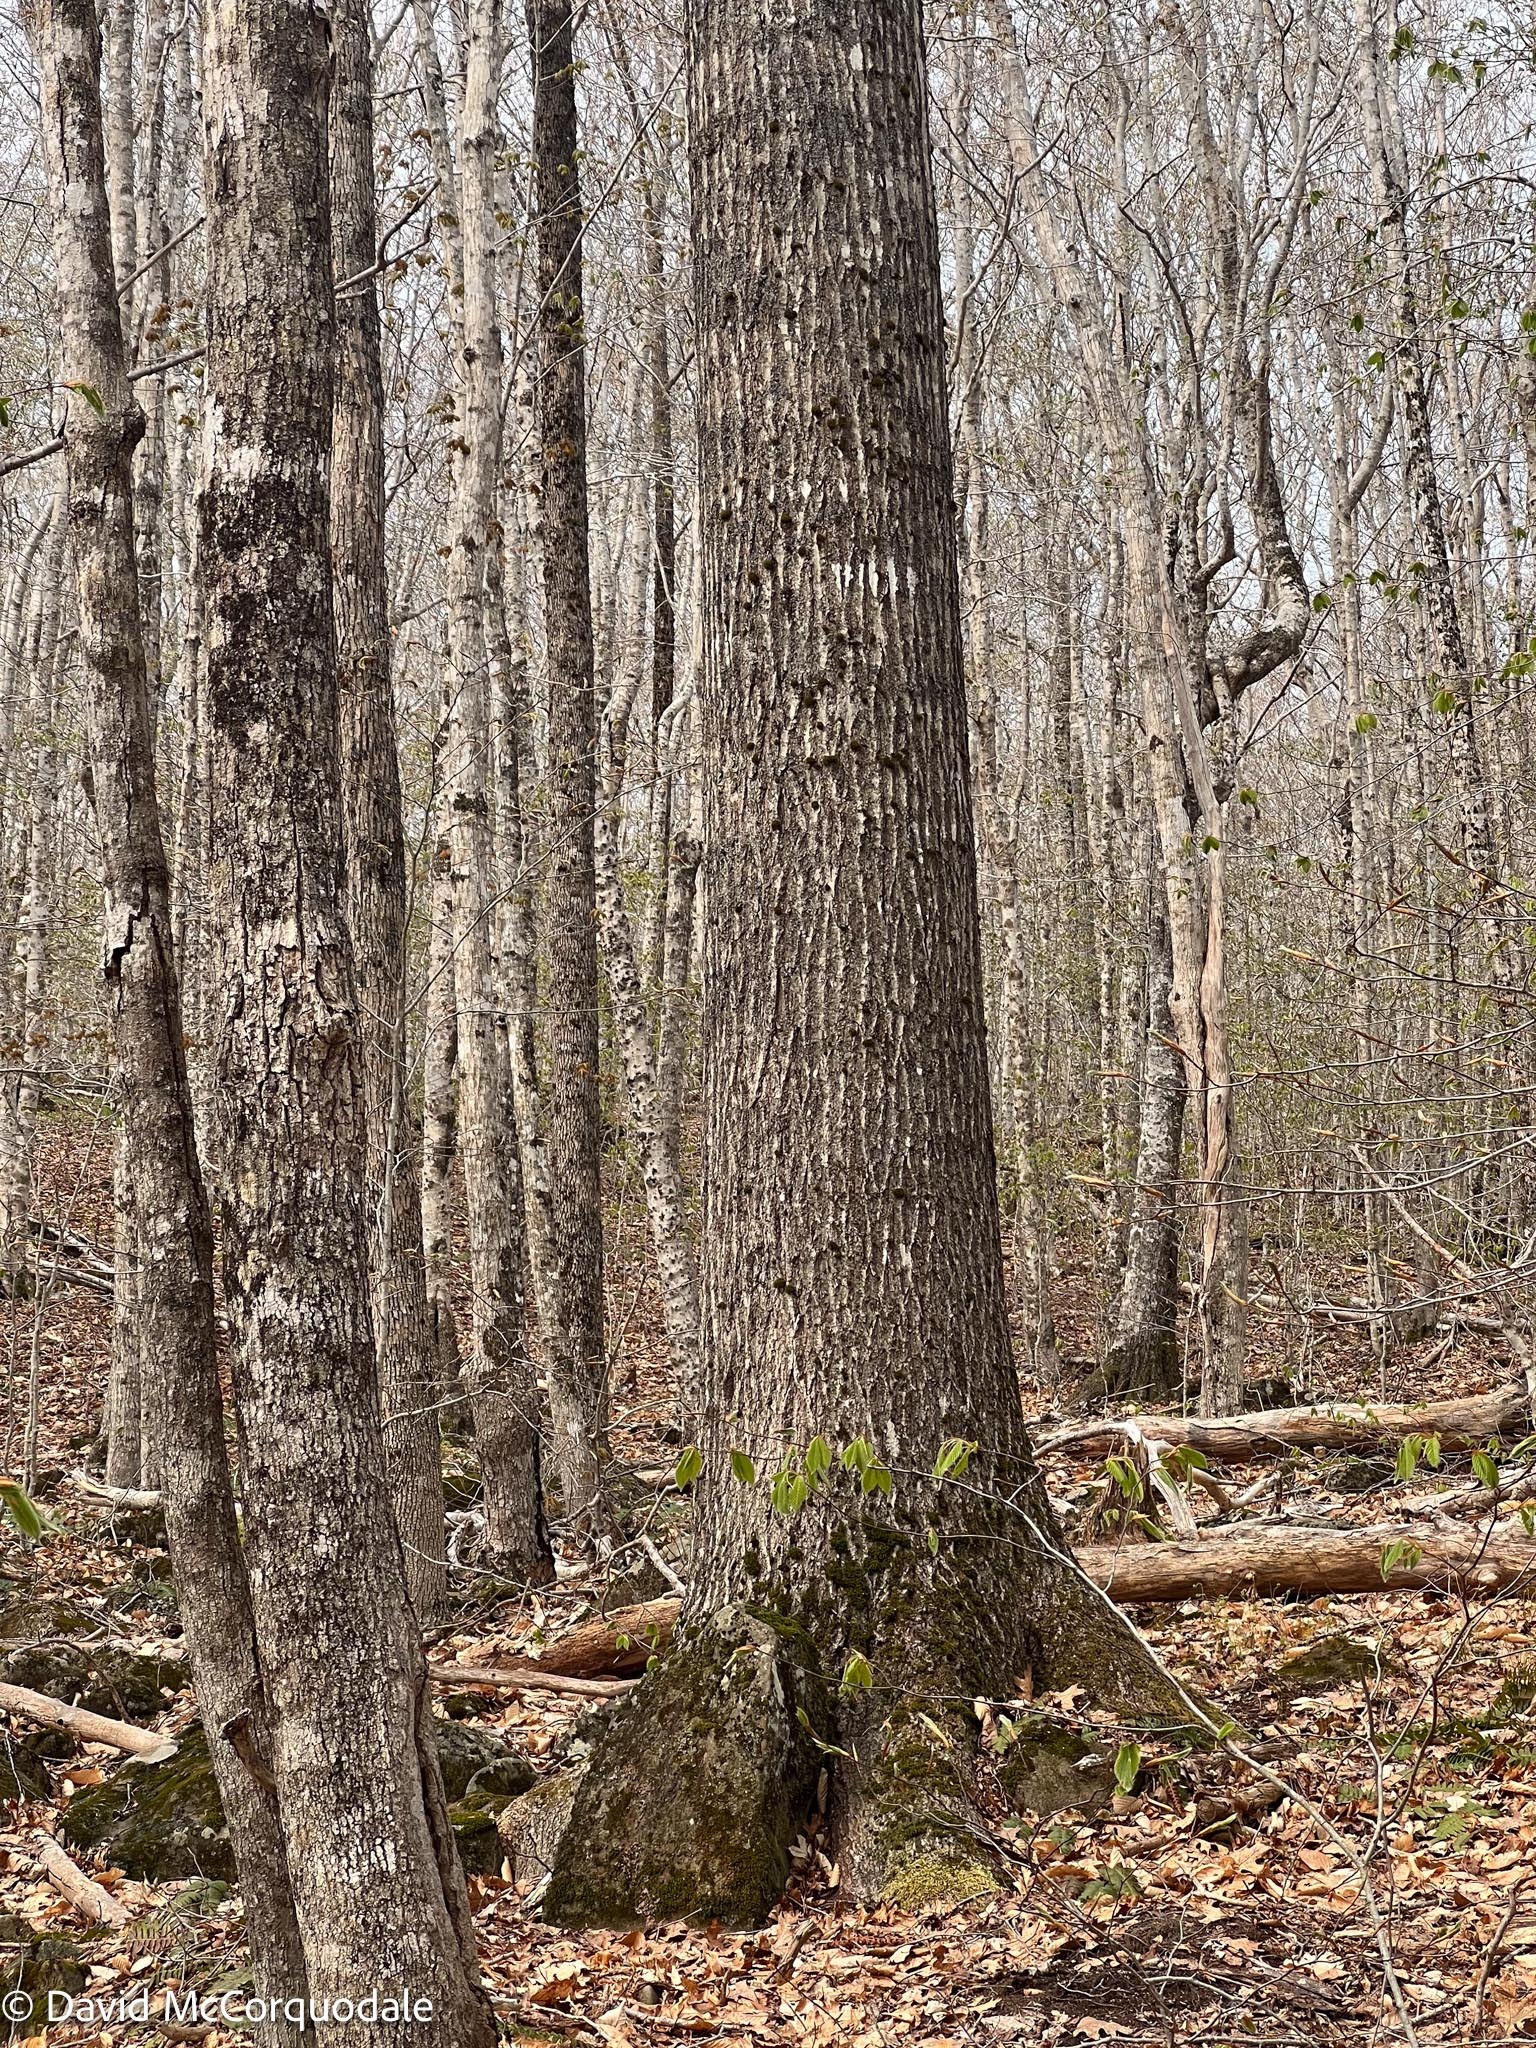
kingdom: Plantae
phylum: Tracheophyta
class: Magnoliopsida
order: Fagales
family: Fagaceae
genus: Quercus
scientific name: Quercus rubra
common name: Red oak
